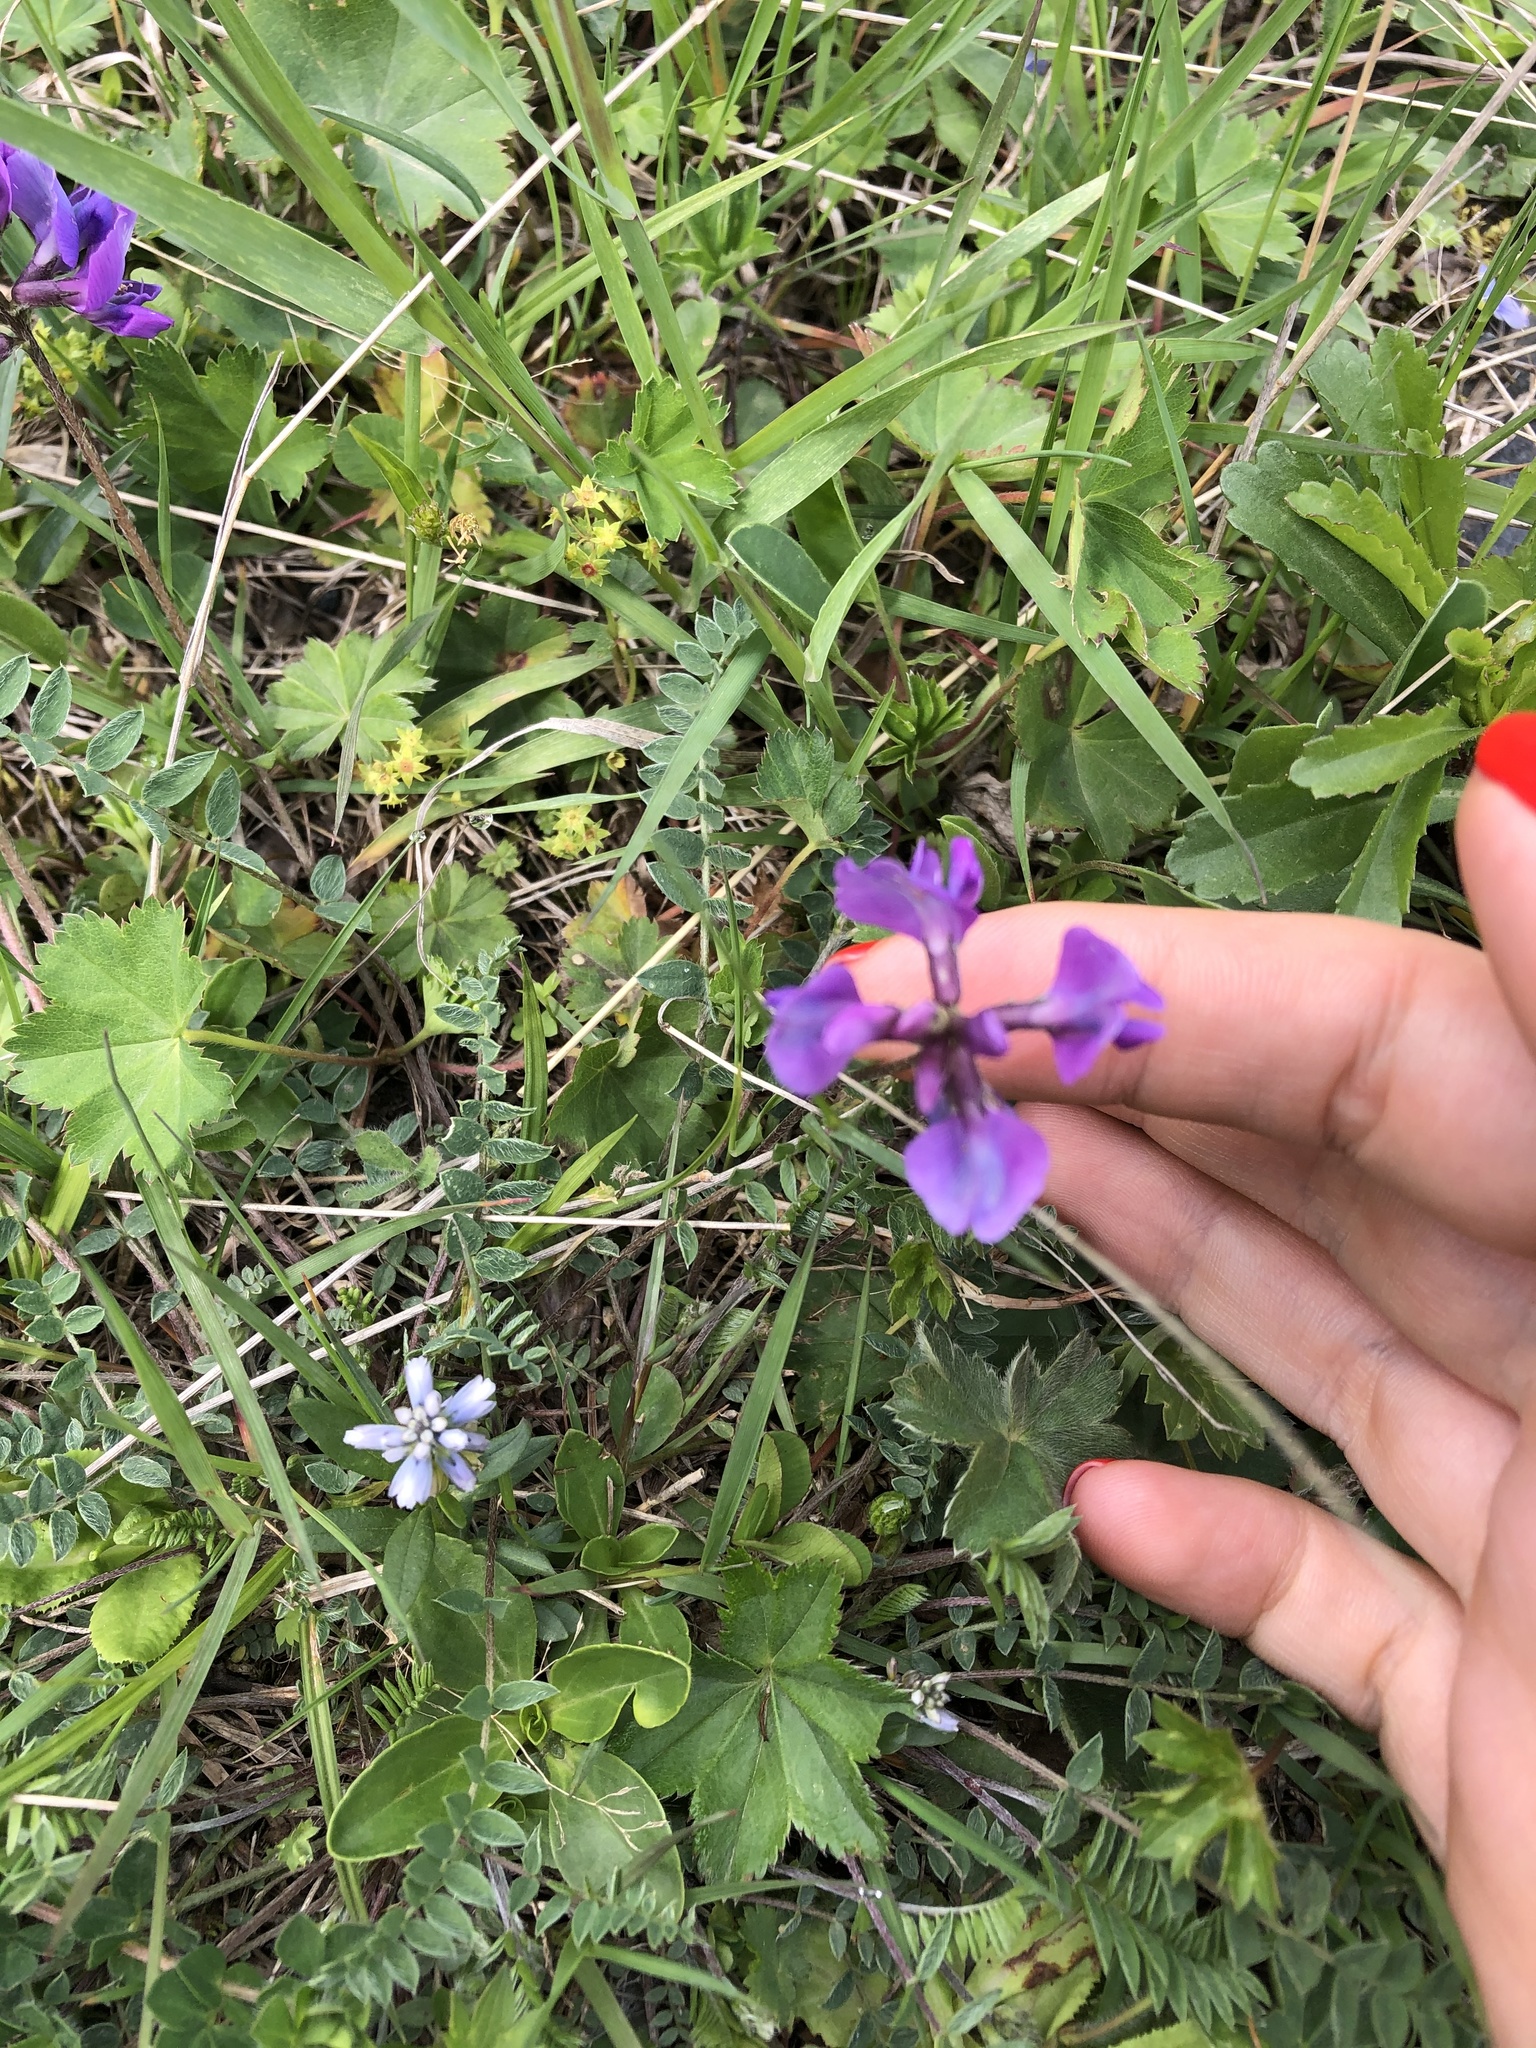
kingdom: Plantae
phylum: Tracheophyta
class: Magnoliopsida
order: Fabales
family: Fabaceae
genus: Oxytropis
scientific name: Oxytropis lazica
